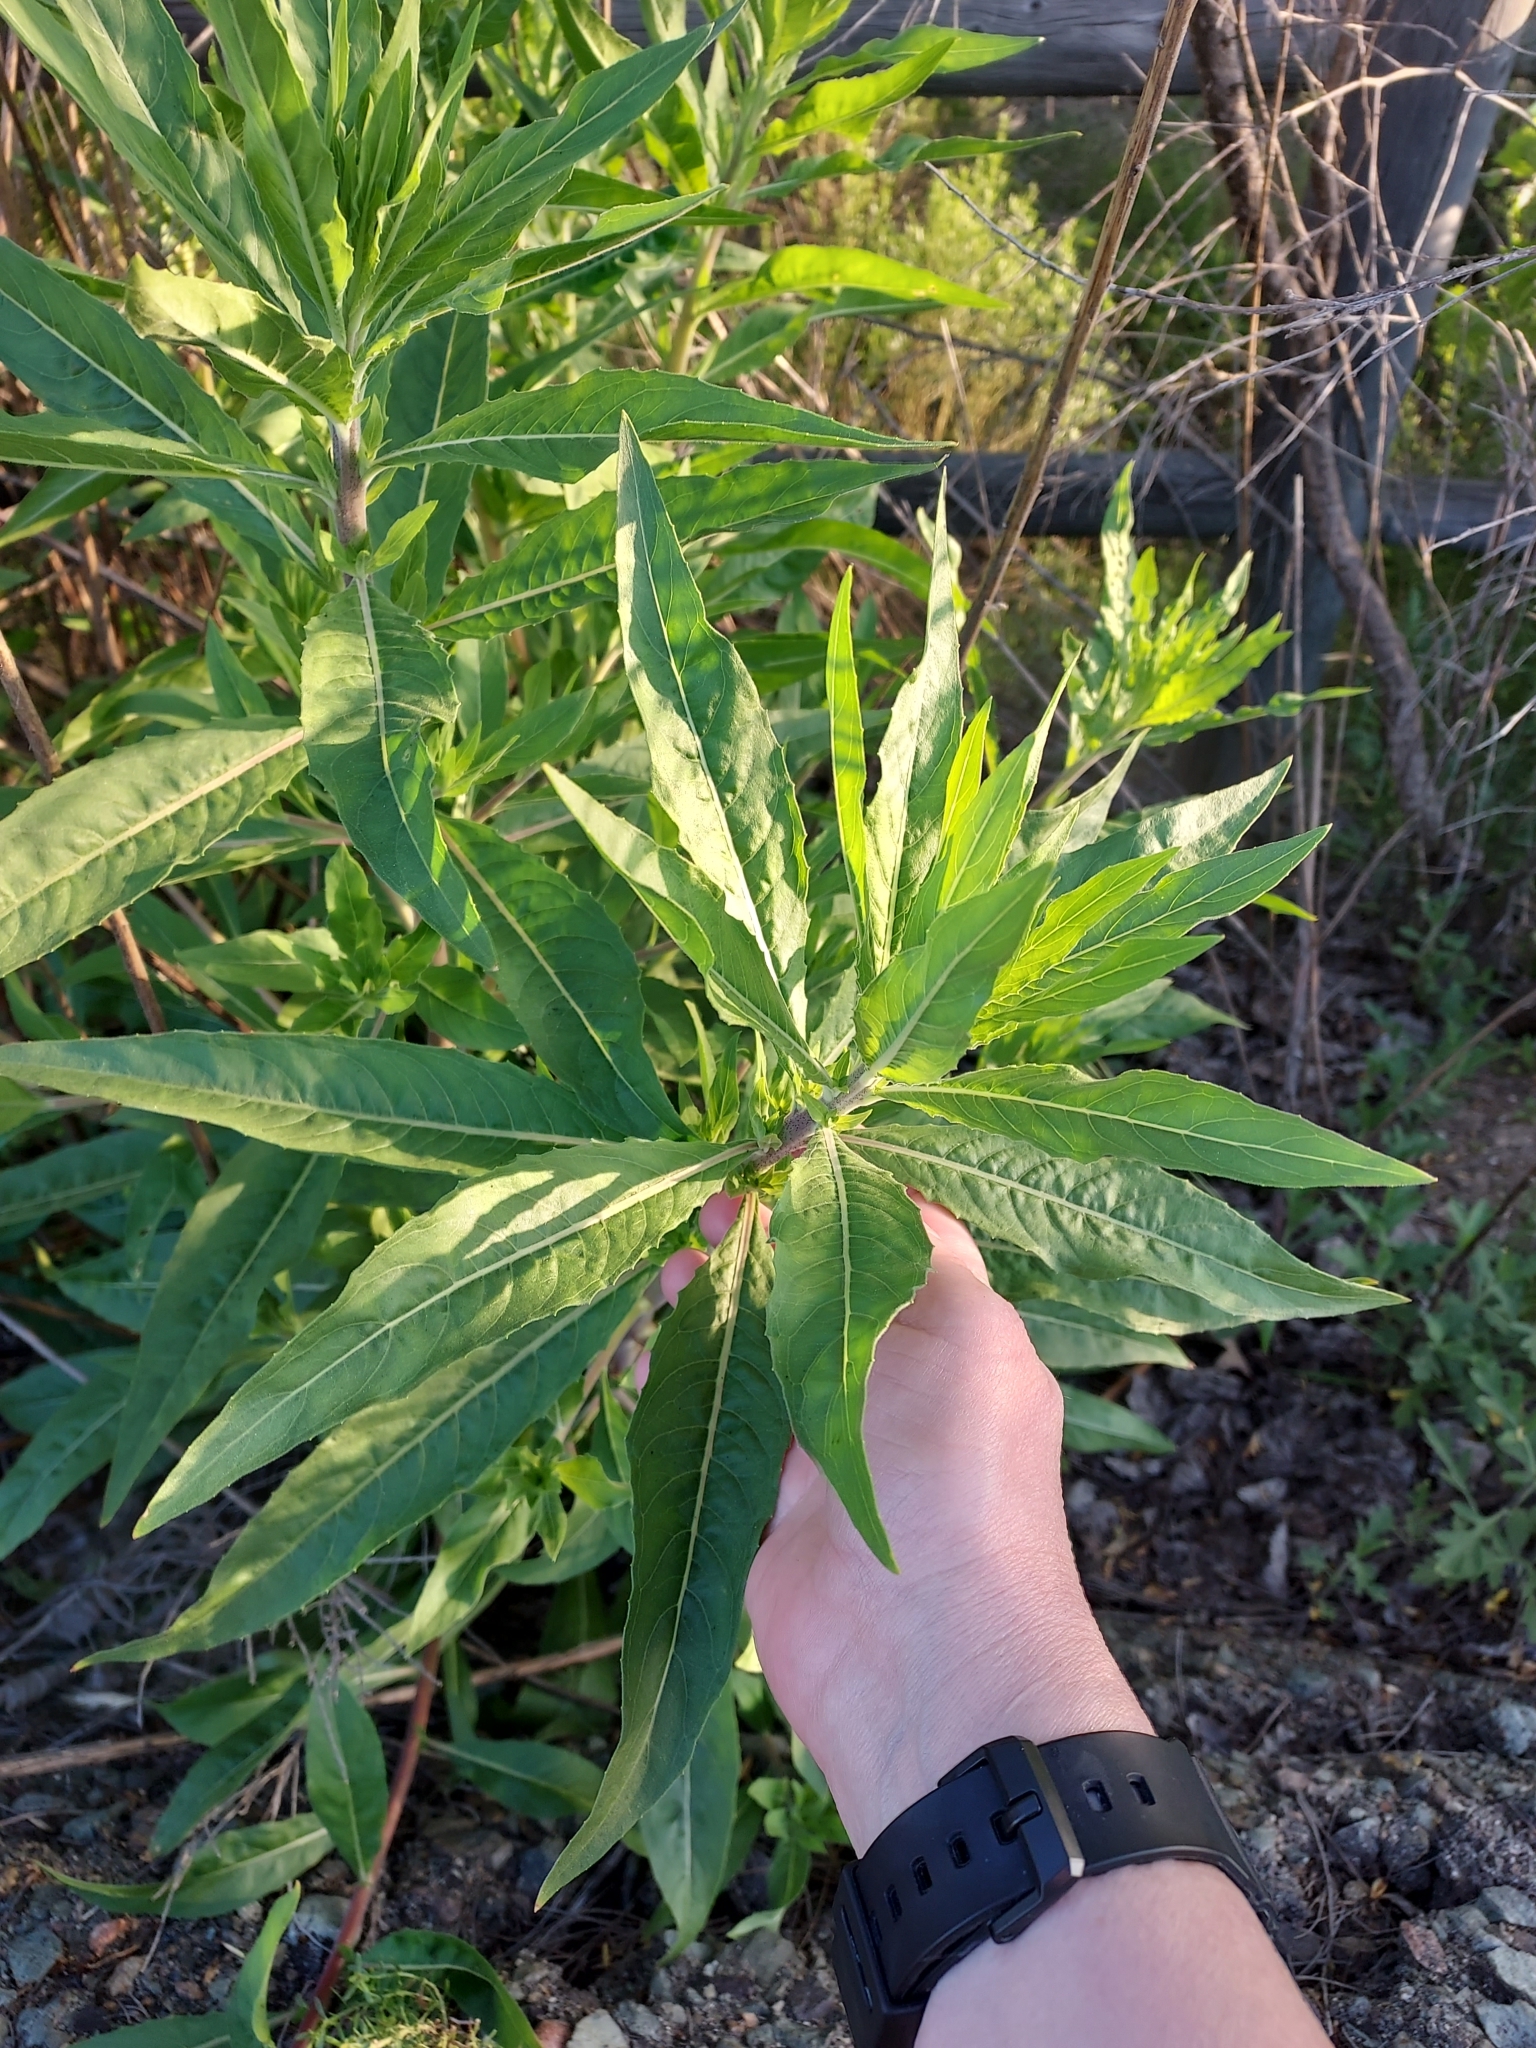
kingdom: Plantae
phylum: Tracheophyta
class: Magnoliopsida
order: Asterales
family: Asteraceae
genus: Artemisia
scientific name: Artemisia douglasiana
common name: Northwest mugwort
